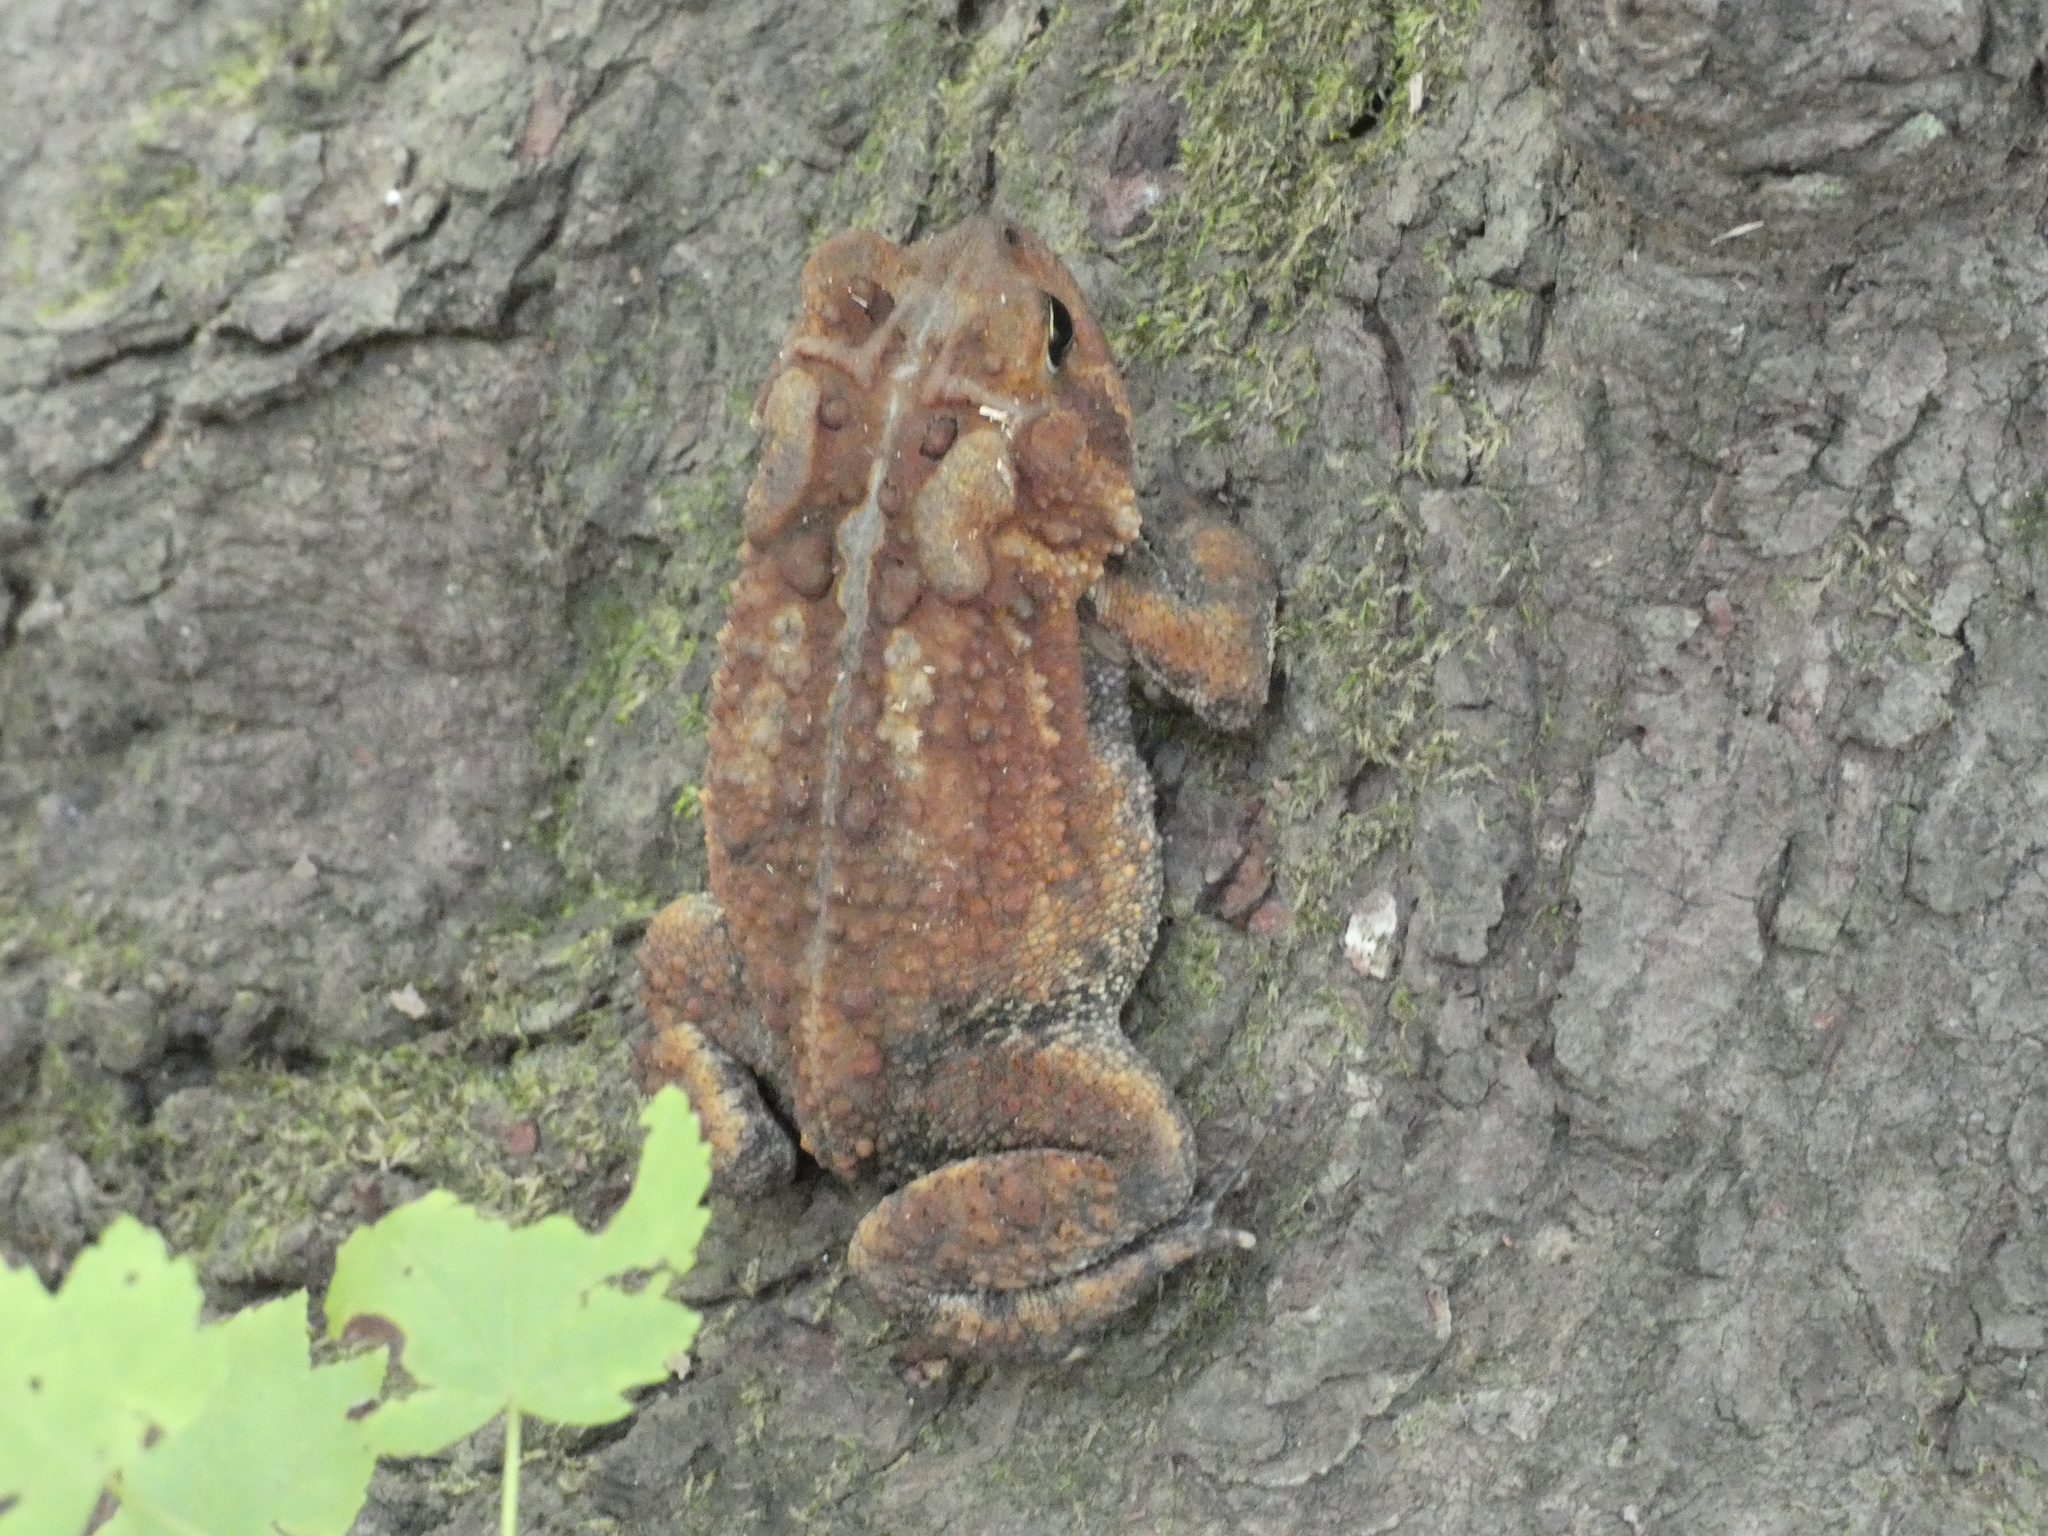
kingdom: Animalia
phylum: Chordata
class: Amphibia
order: Anura
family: Bufonidae
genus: Anaxyrus
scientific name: Anaxyrus americanus
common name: American toad
